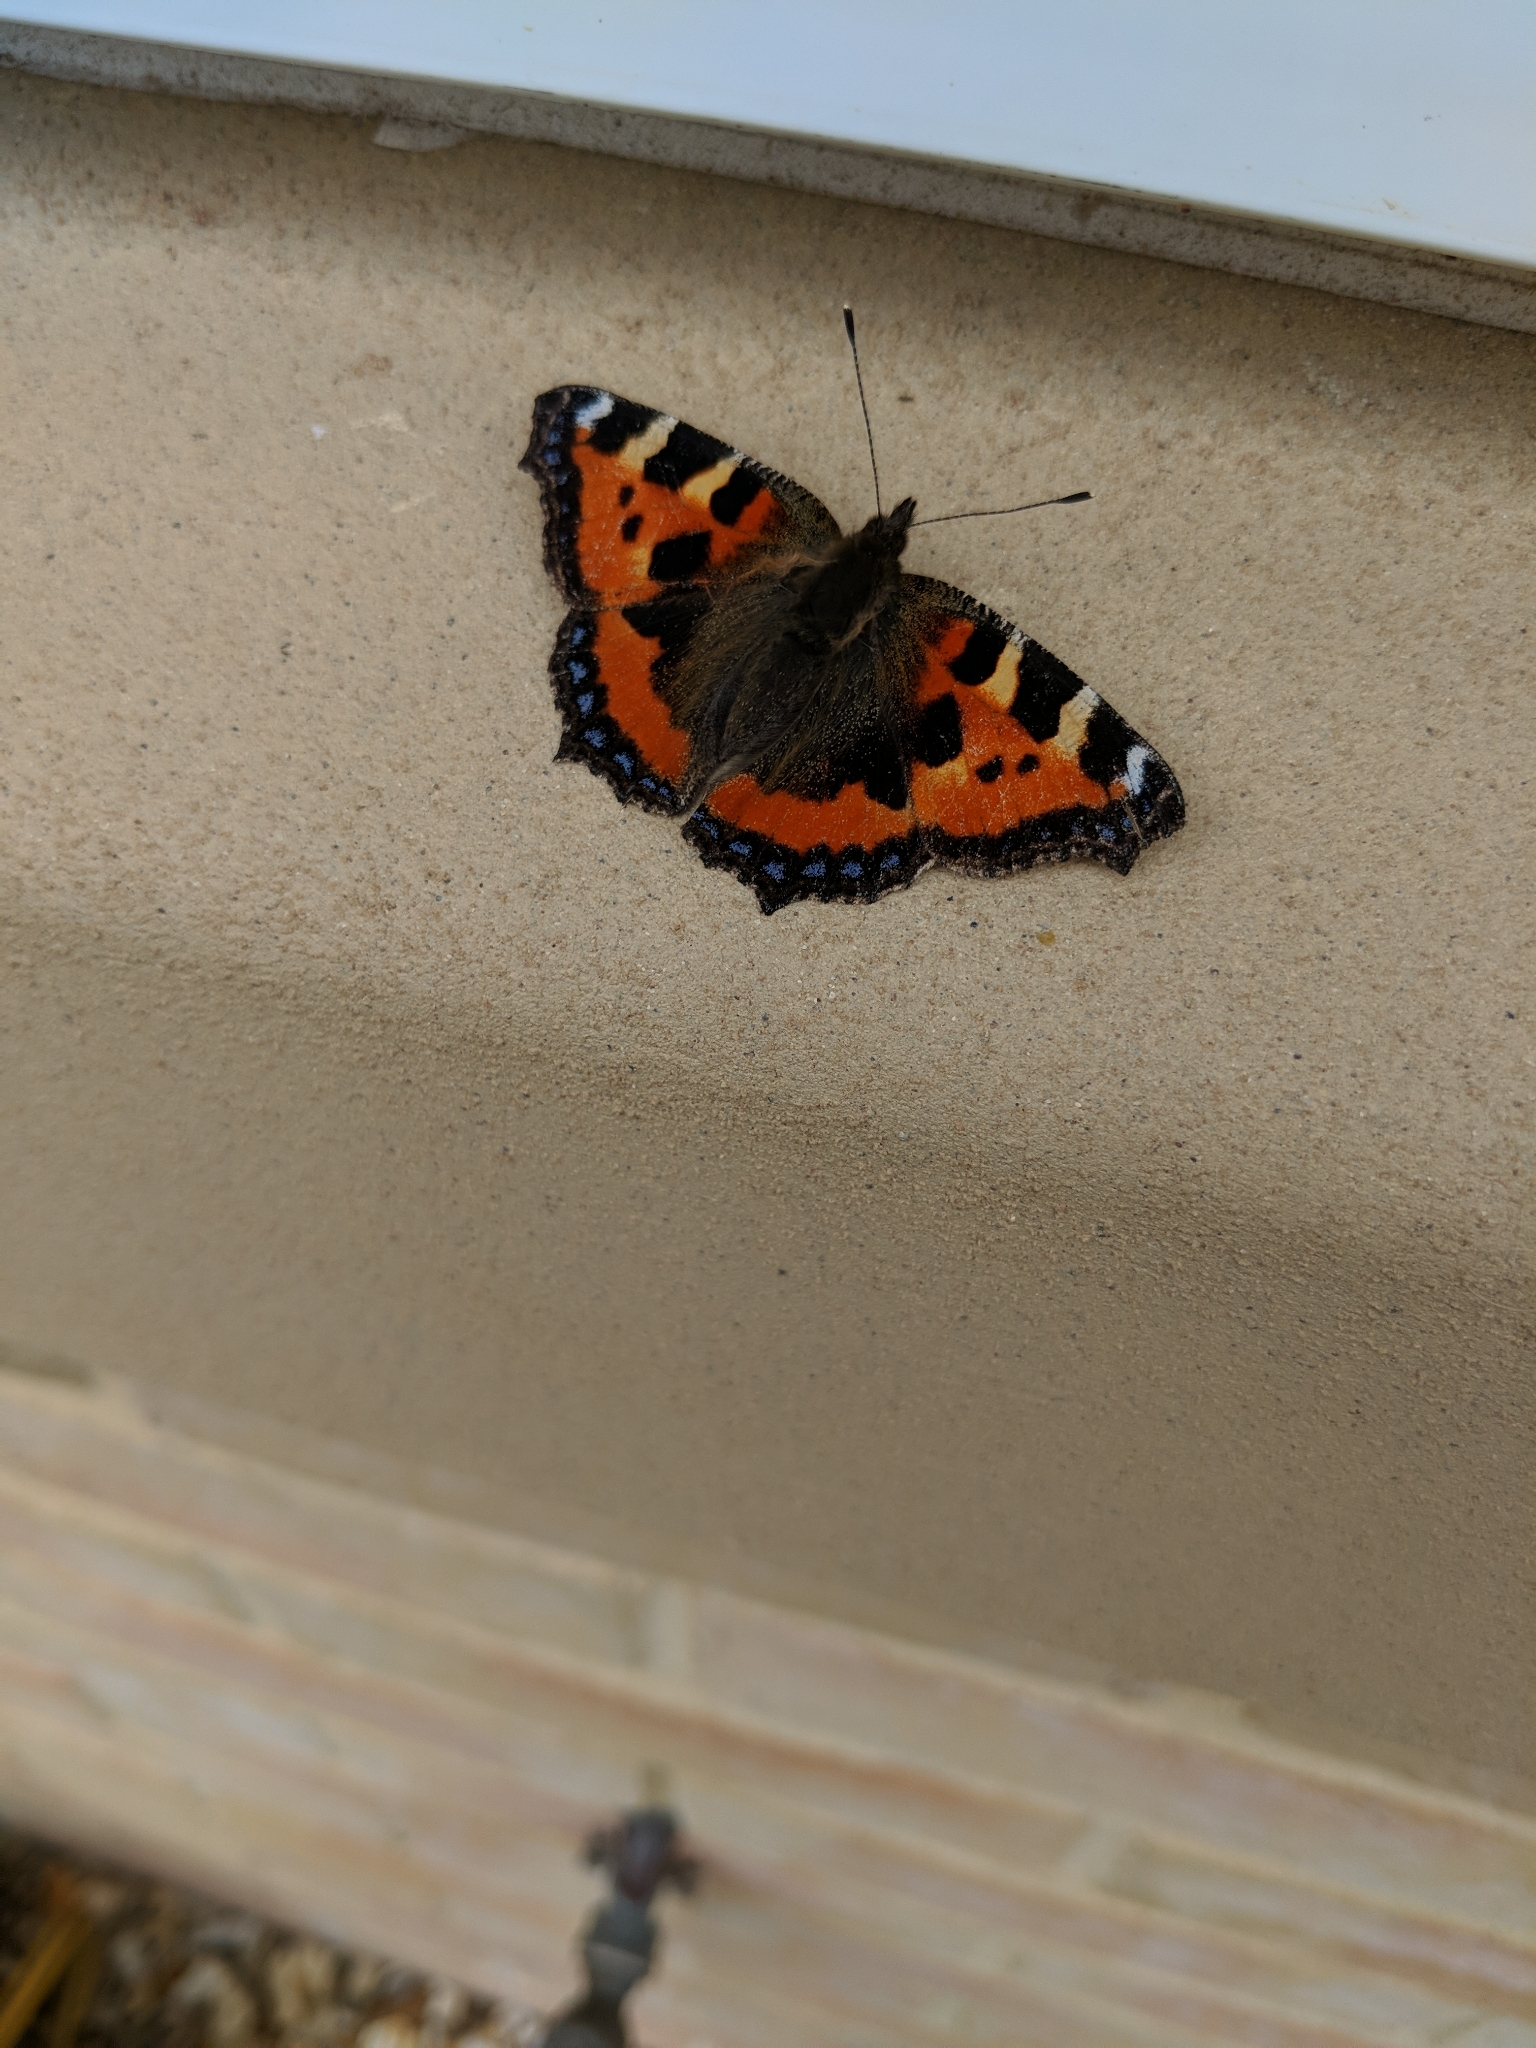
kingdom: Animalia
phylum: Arthropoda
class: Insecta
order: Lepidoptera
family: Nymphalidae
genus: Aglais
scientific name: Aglais urticae
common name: Small tortoiseshell
